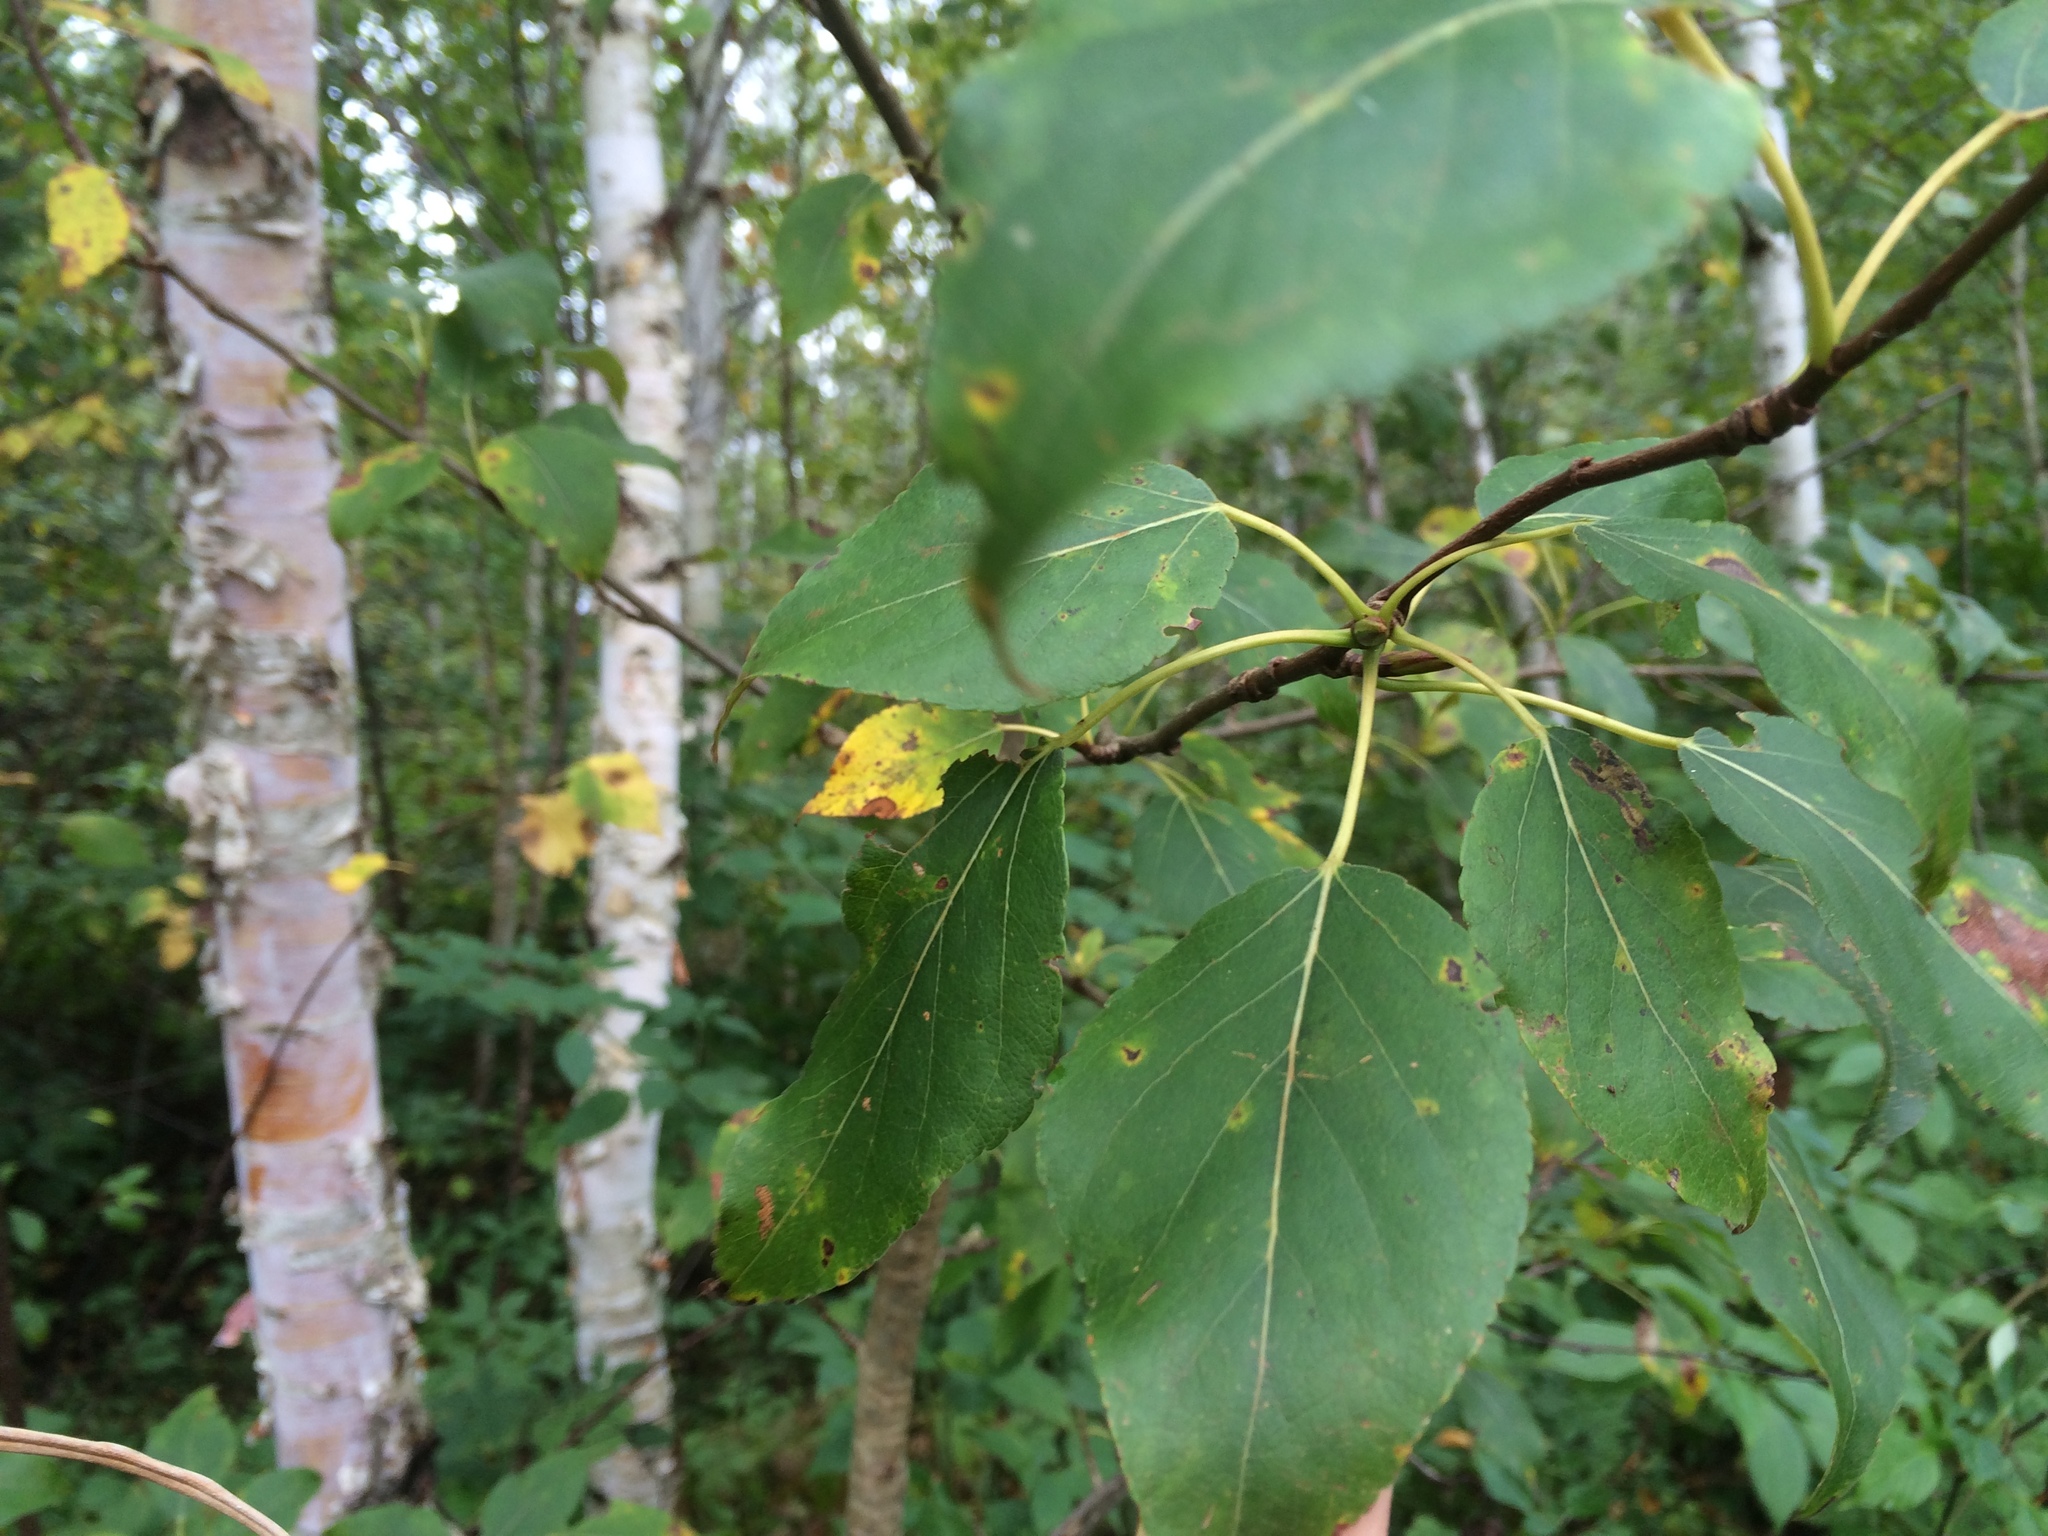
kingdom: Plantae
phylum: Tracheophyta
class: Magnoliopsida
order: Malpighiales
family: Salicaceae
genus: Populus
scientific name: Populus balsamifera
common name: Balsam poplar
